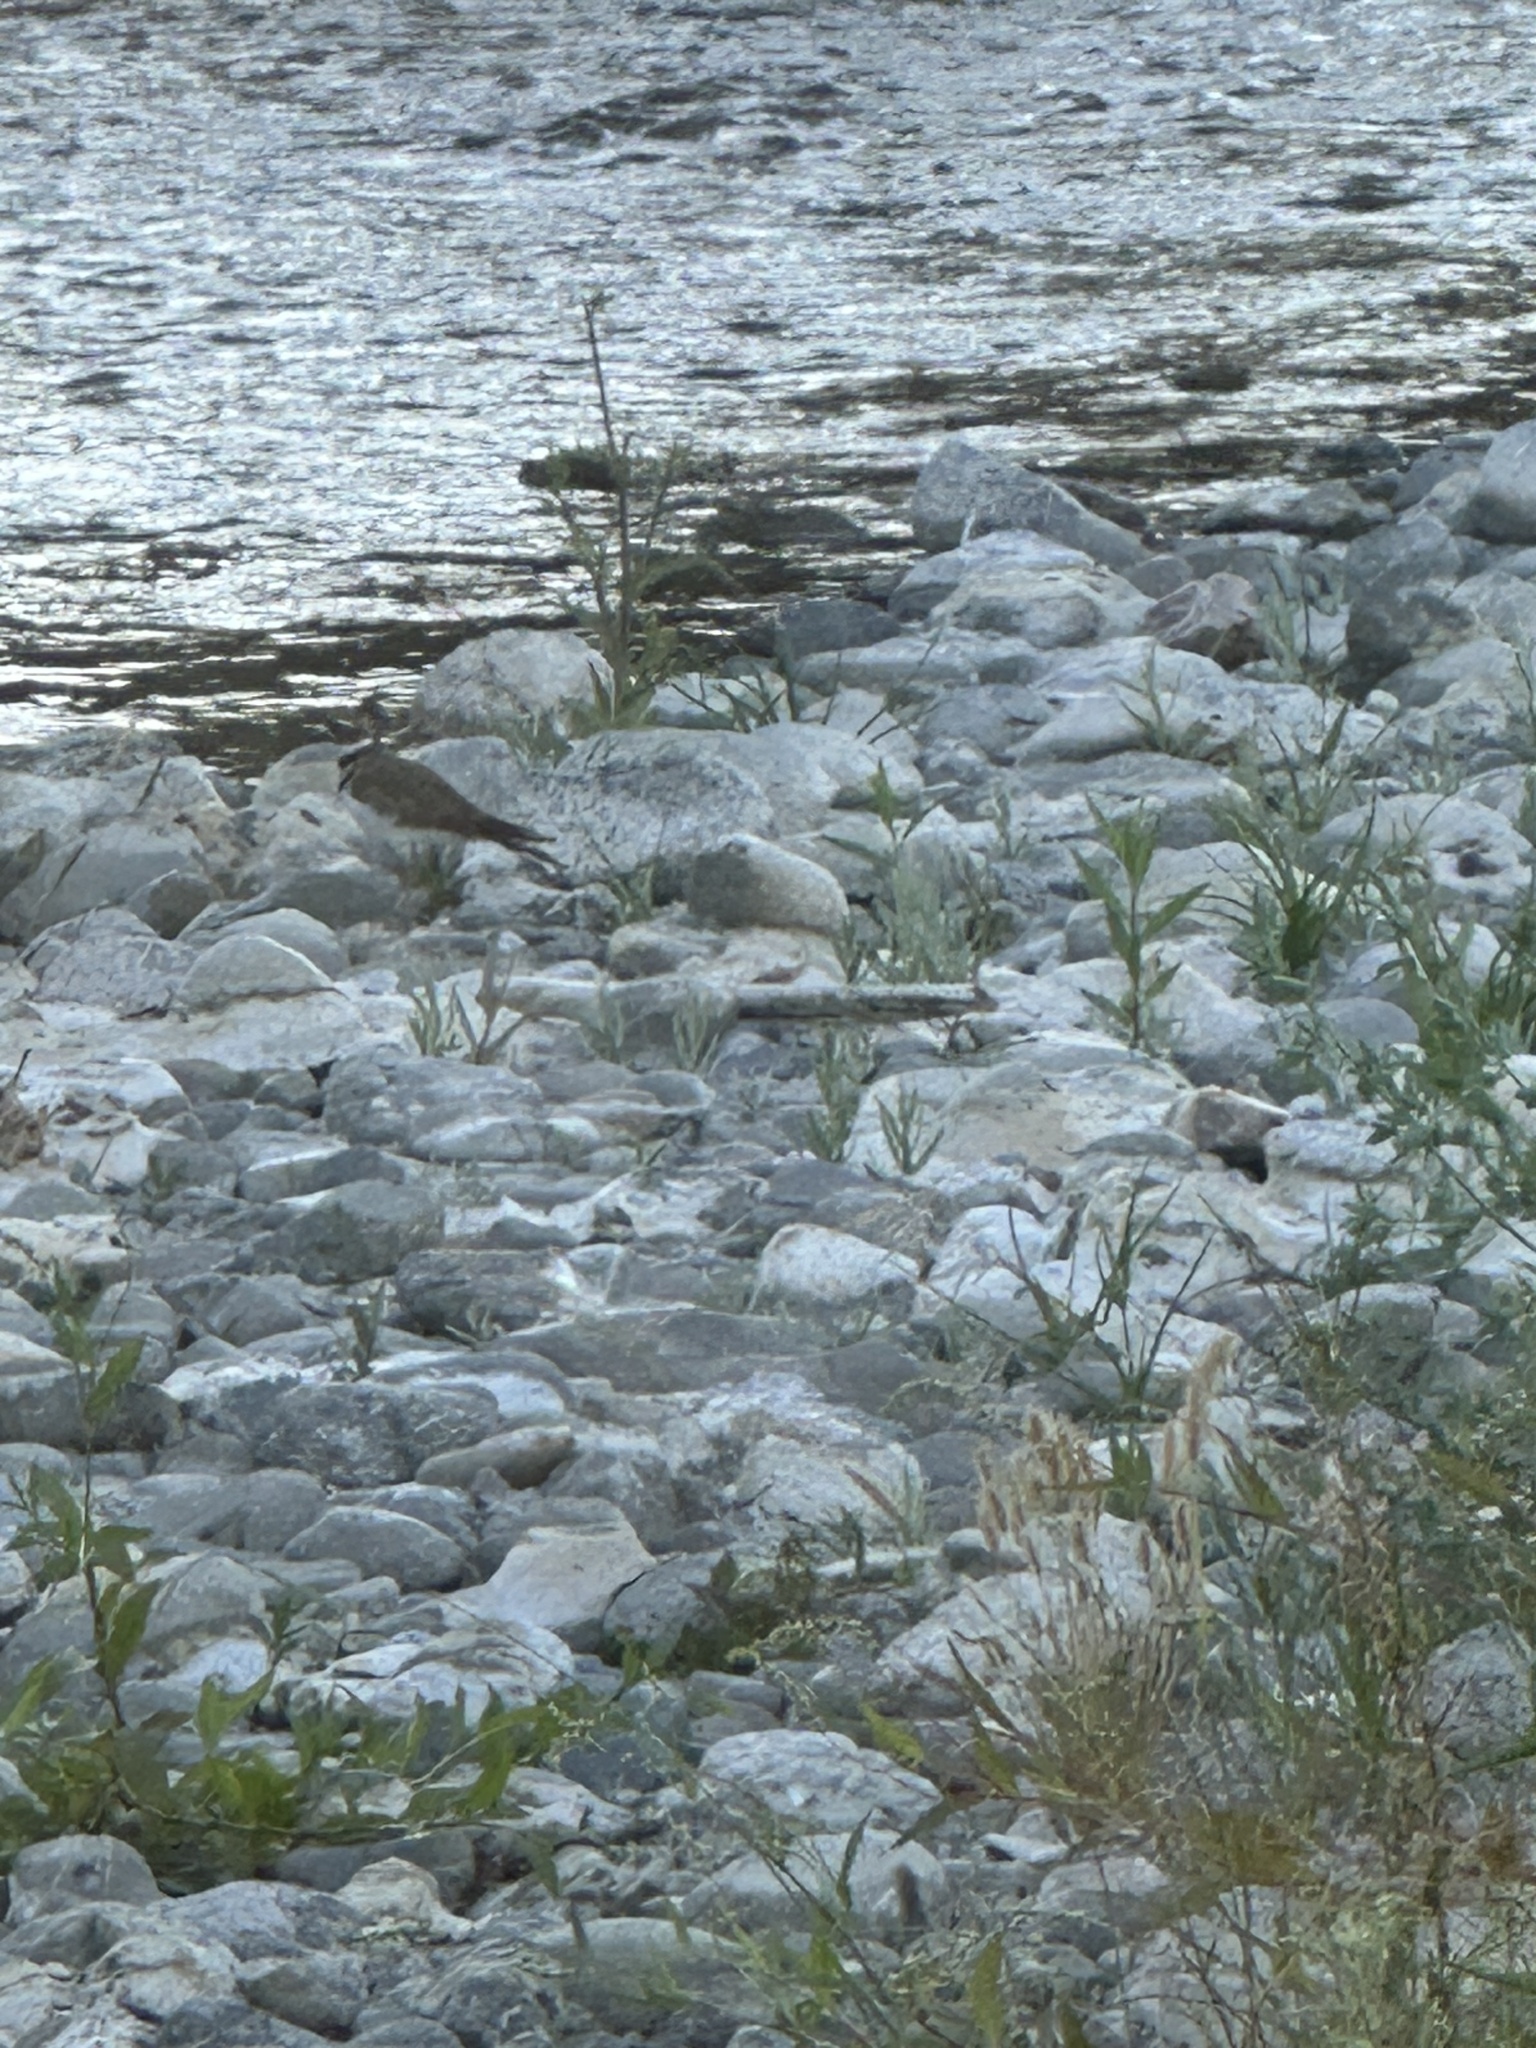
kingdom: Animalia
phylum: Chordata
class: Aves
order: Charadriiformes
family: Charadriidae
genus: Charadrius
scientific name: Charadrius vociferus
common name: Killdeer
